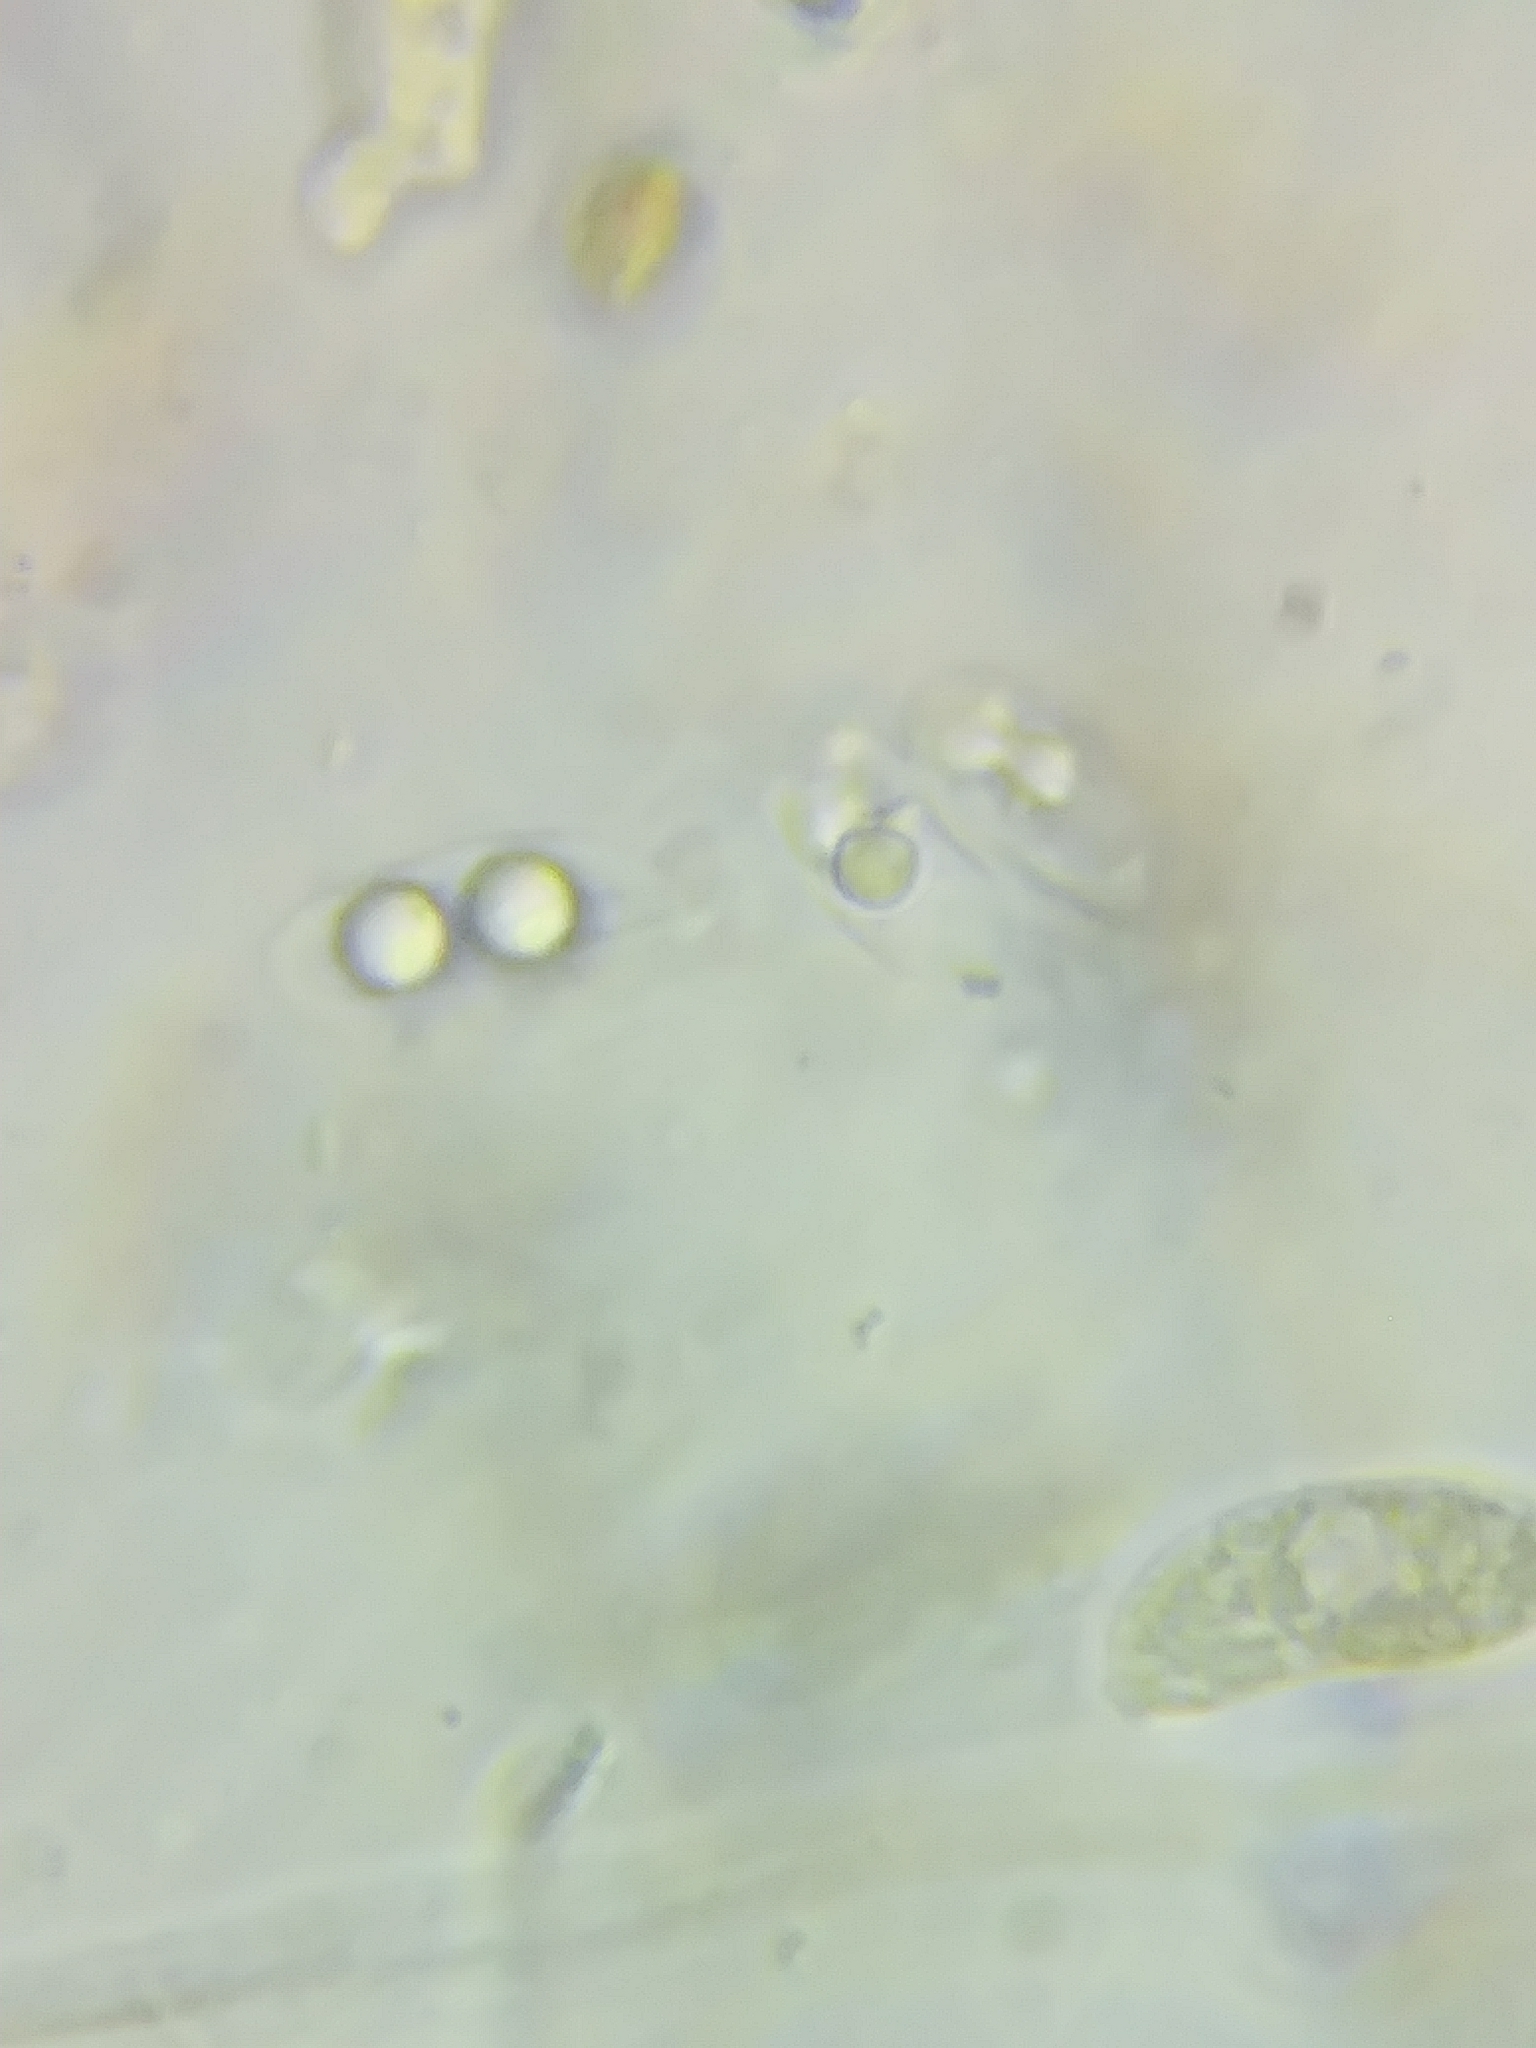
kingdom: Fungi
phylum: Basidiomycota
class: Dacrymycetes
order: Dacrymycetales
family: Dacrymycetaceae
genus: Dacrymyces
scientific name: Dacrymyces corticioides
